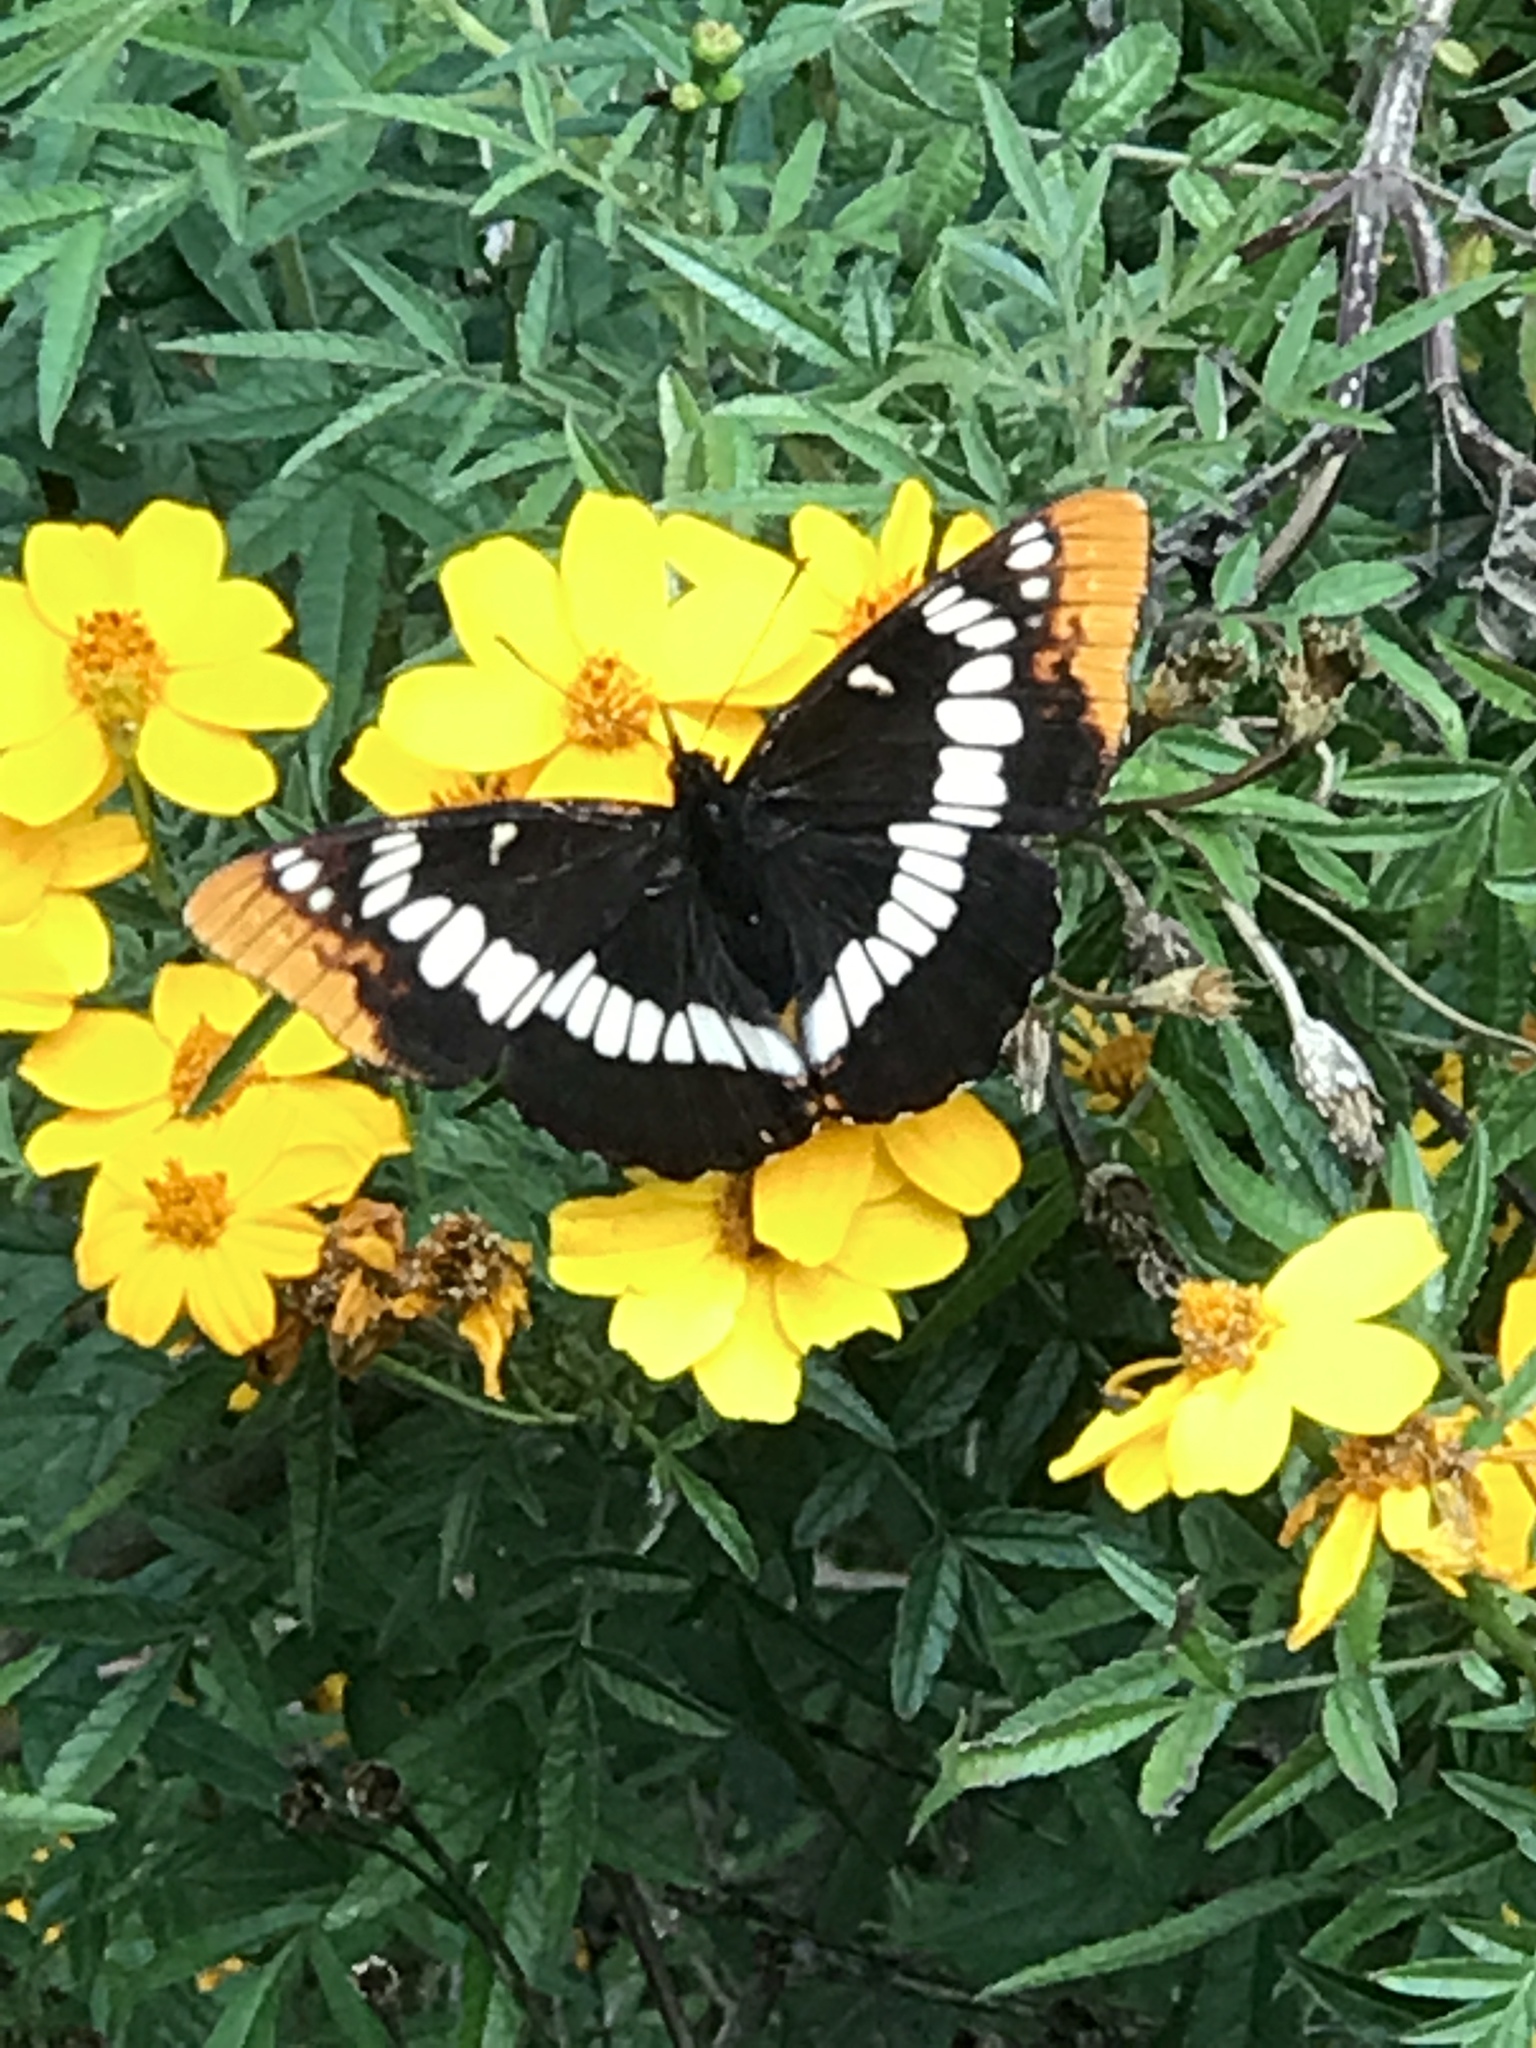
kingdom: Animalia
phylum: Arthropoda
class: Insecta
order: Lepidoptera
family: Nymphalidae
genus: Limenitis
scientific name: Limenitis lorquini
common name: Lorquin's admiral
